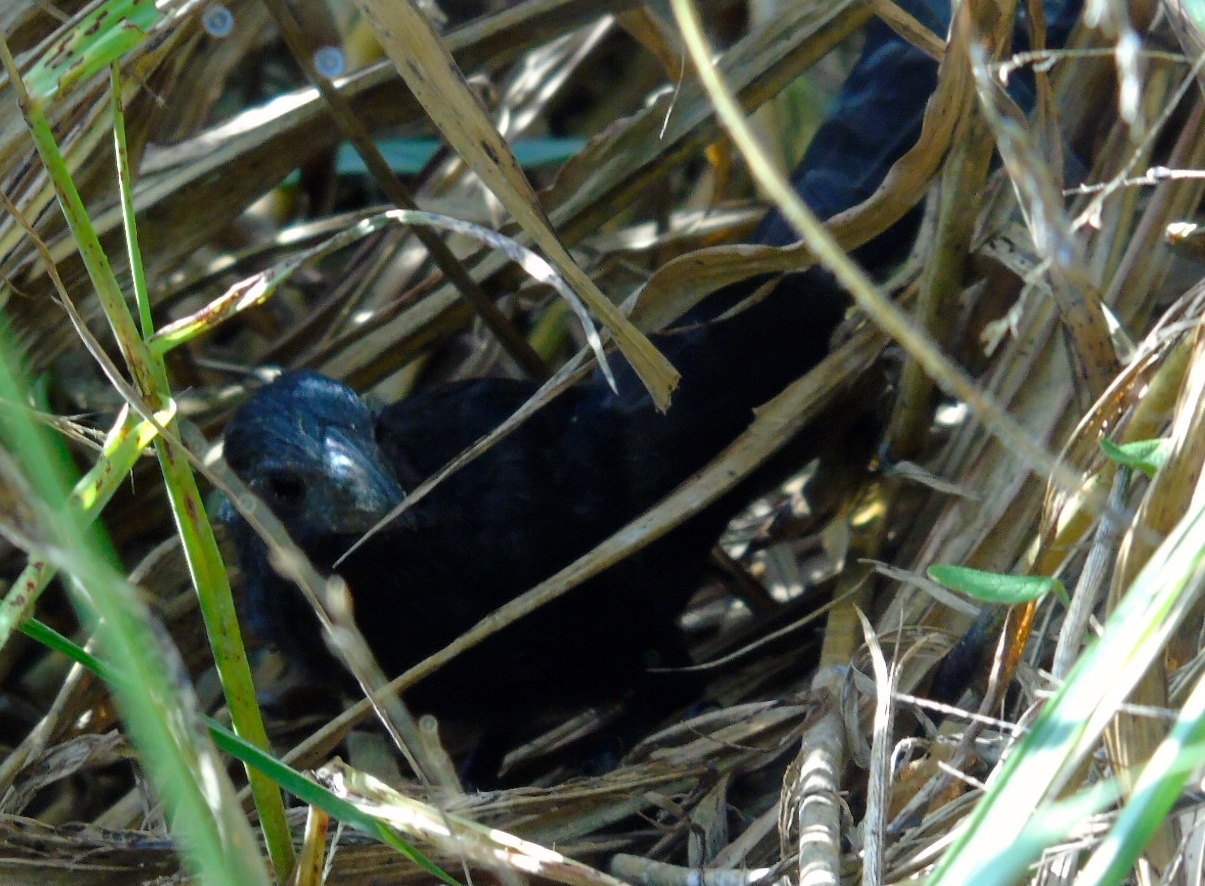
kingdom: Animalia
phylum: Chordata
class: Aves
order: Cuculiformes
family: Cuculidae
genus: Crotophaga
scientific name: Crotophaga sulcirostris
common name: Groove-billed ani
